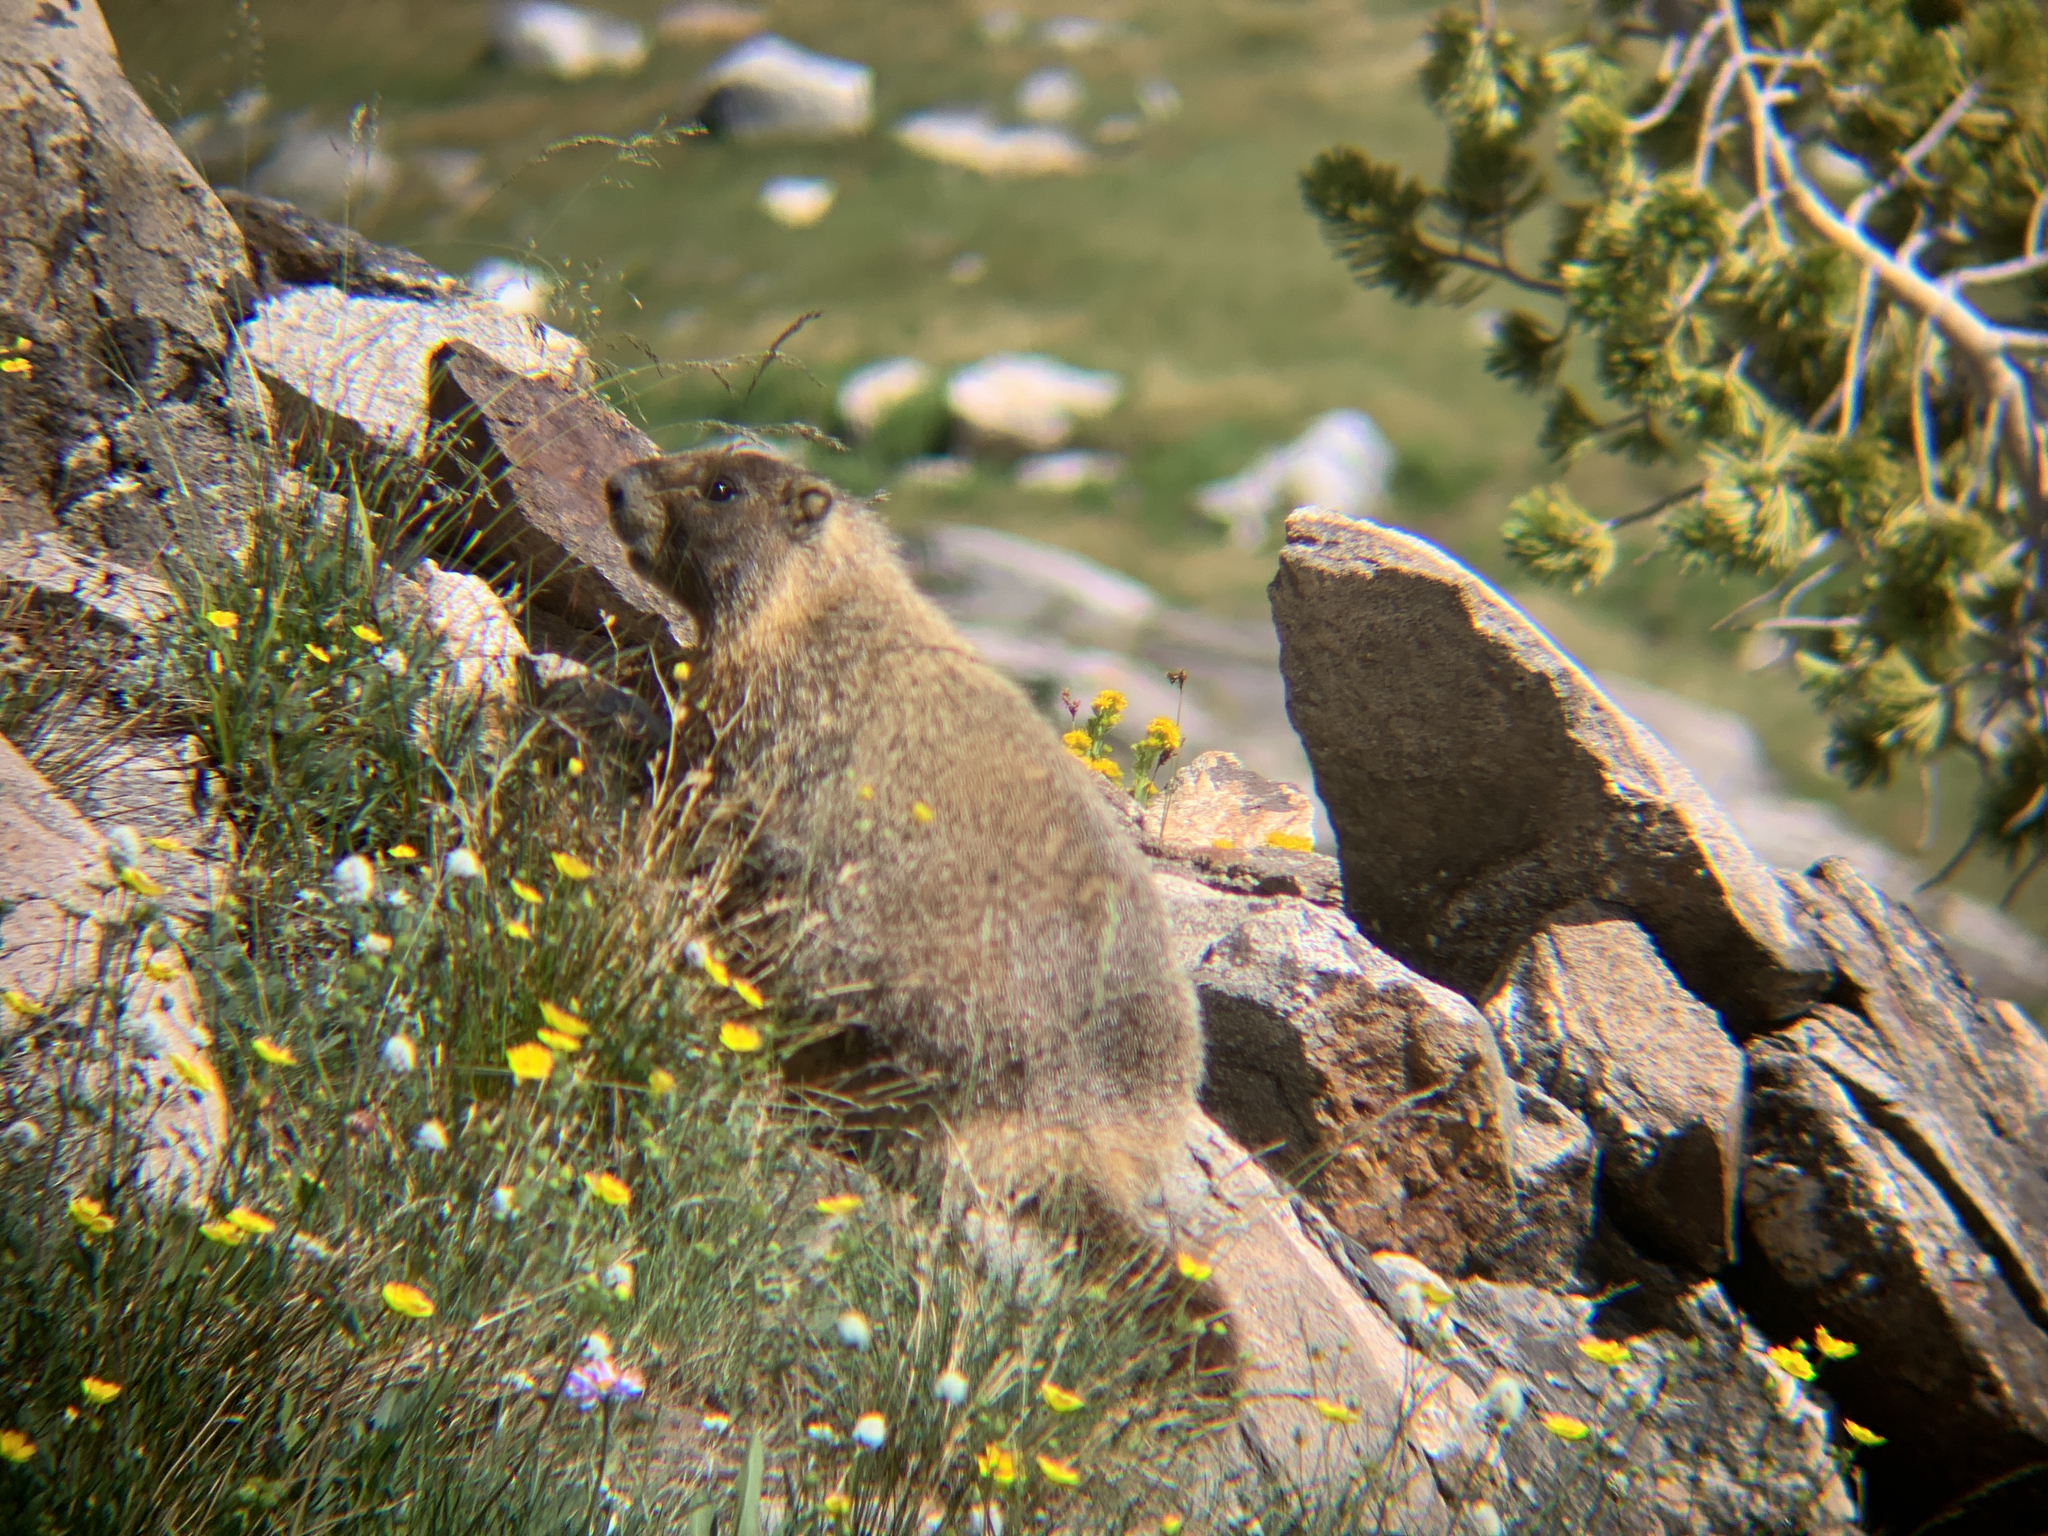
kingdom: Animalia
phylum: Chordata
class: Mammalia
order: Rodentia
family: Sciuridae
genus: Marmota
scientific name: Marmota flaviventris
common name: Yellow-bellied marmot
